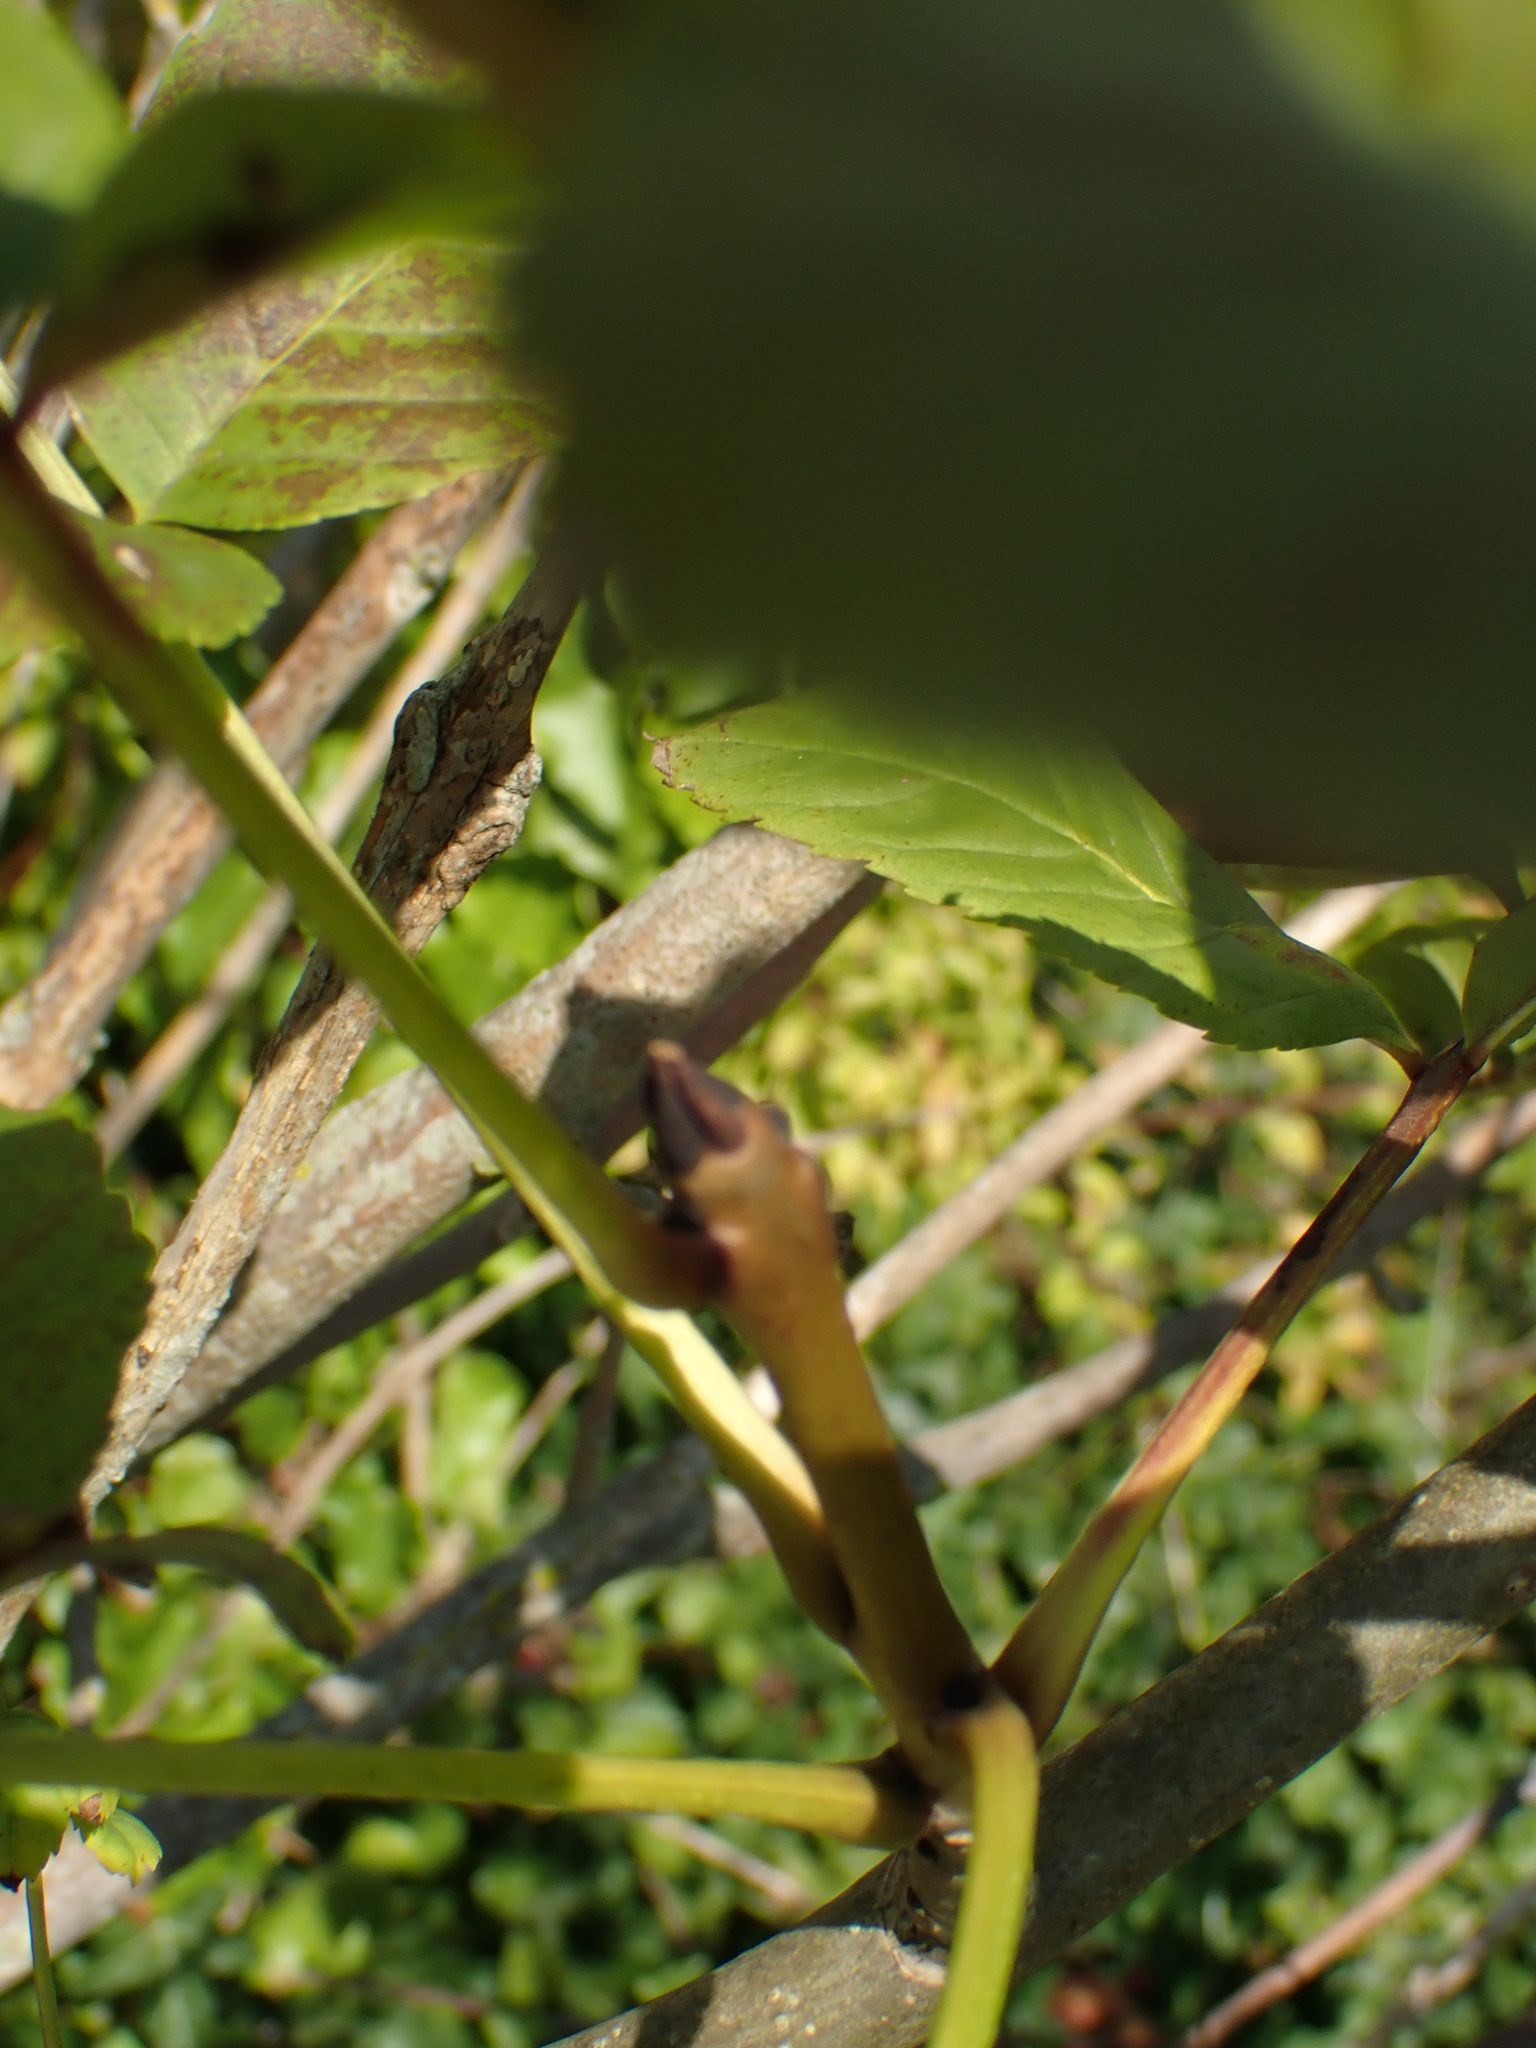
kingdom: Plantae
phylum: Tracheophyta
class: Magnoliopsida
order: Lamiales
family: Oleaceae
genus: Fraxinus
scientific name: Fraxinus excelsior
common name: European ash
